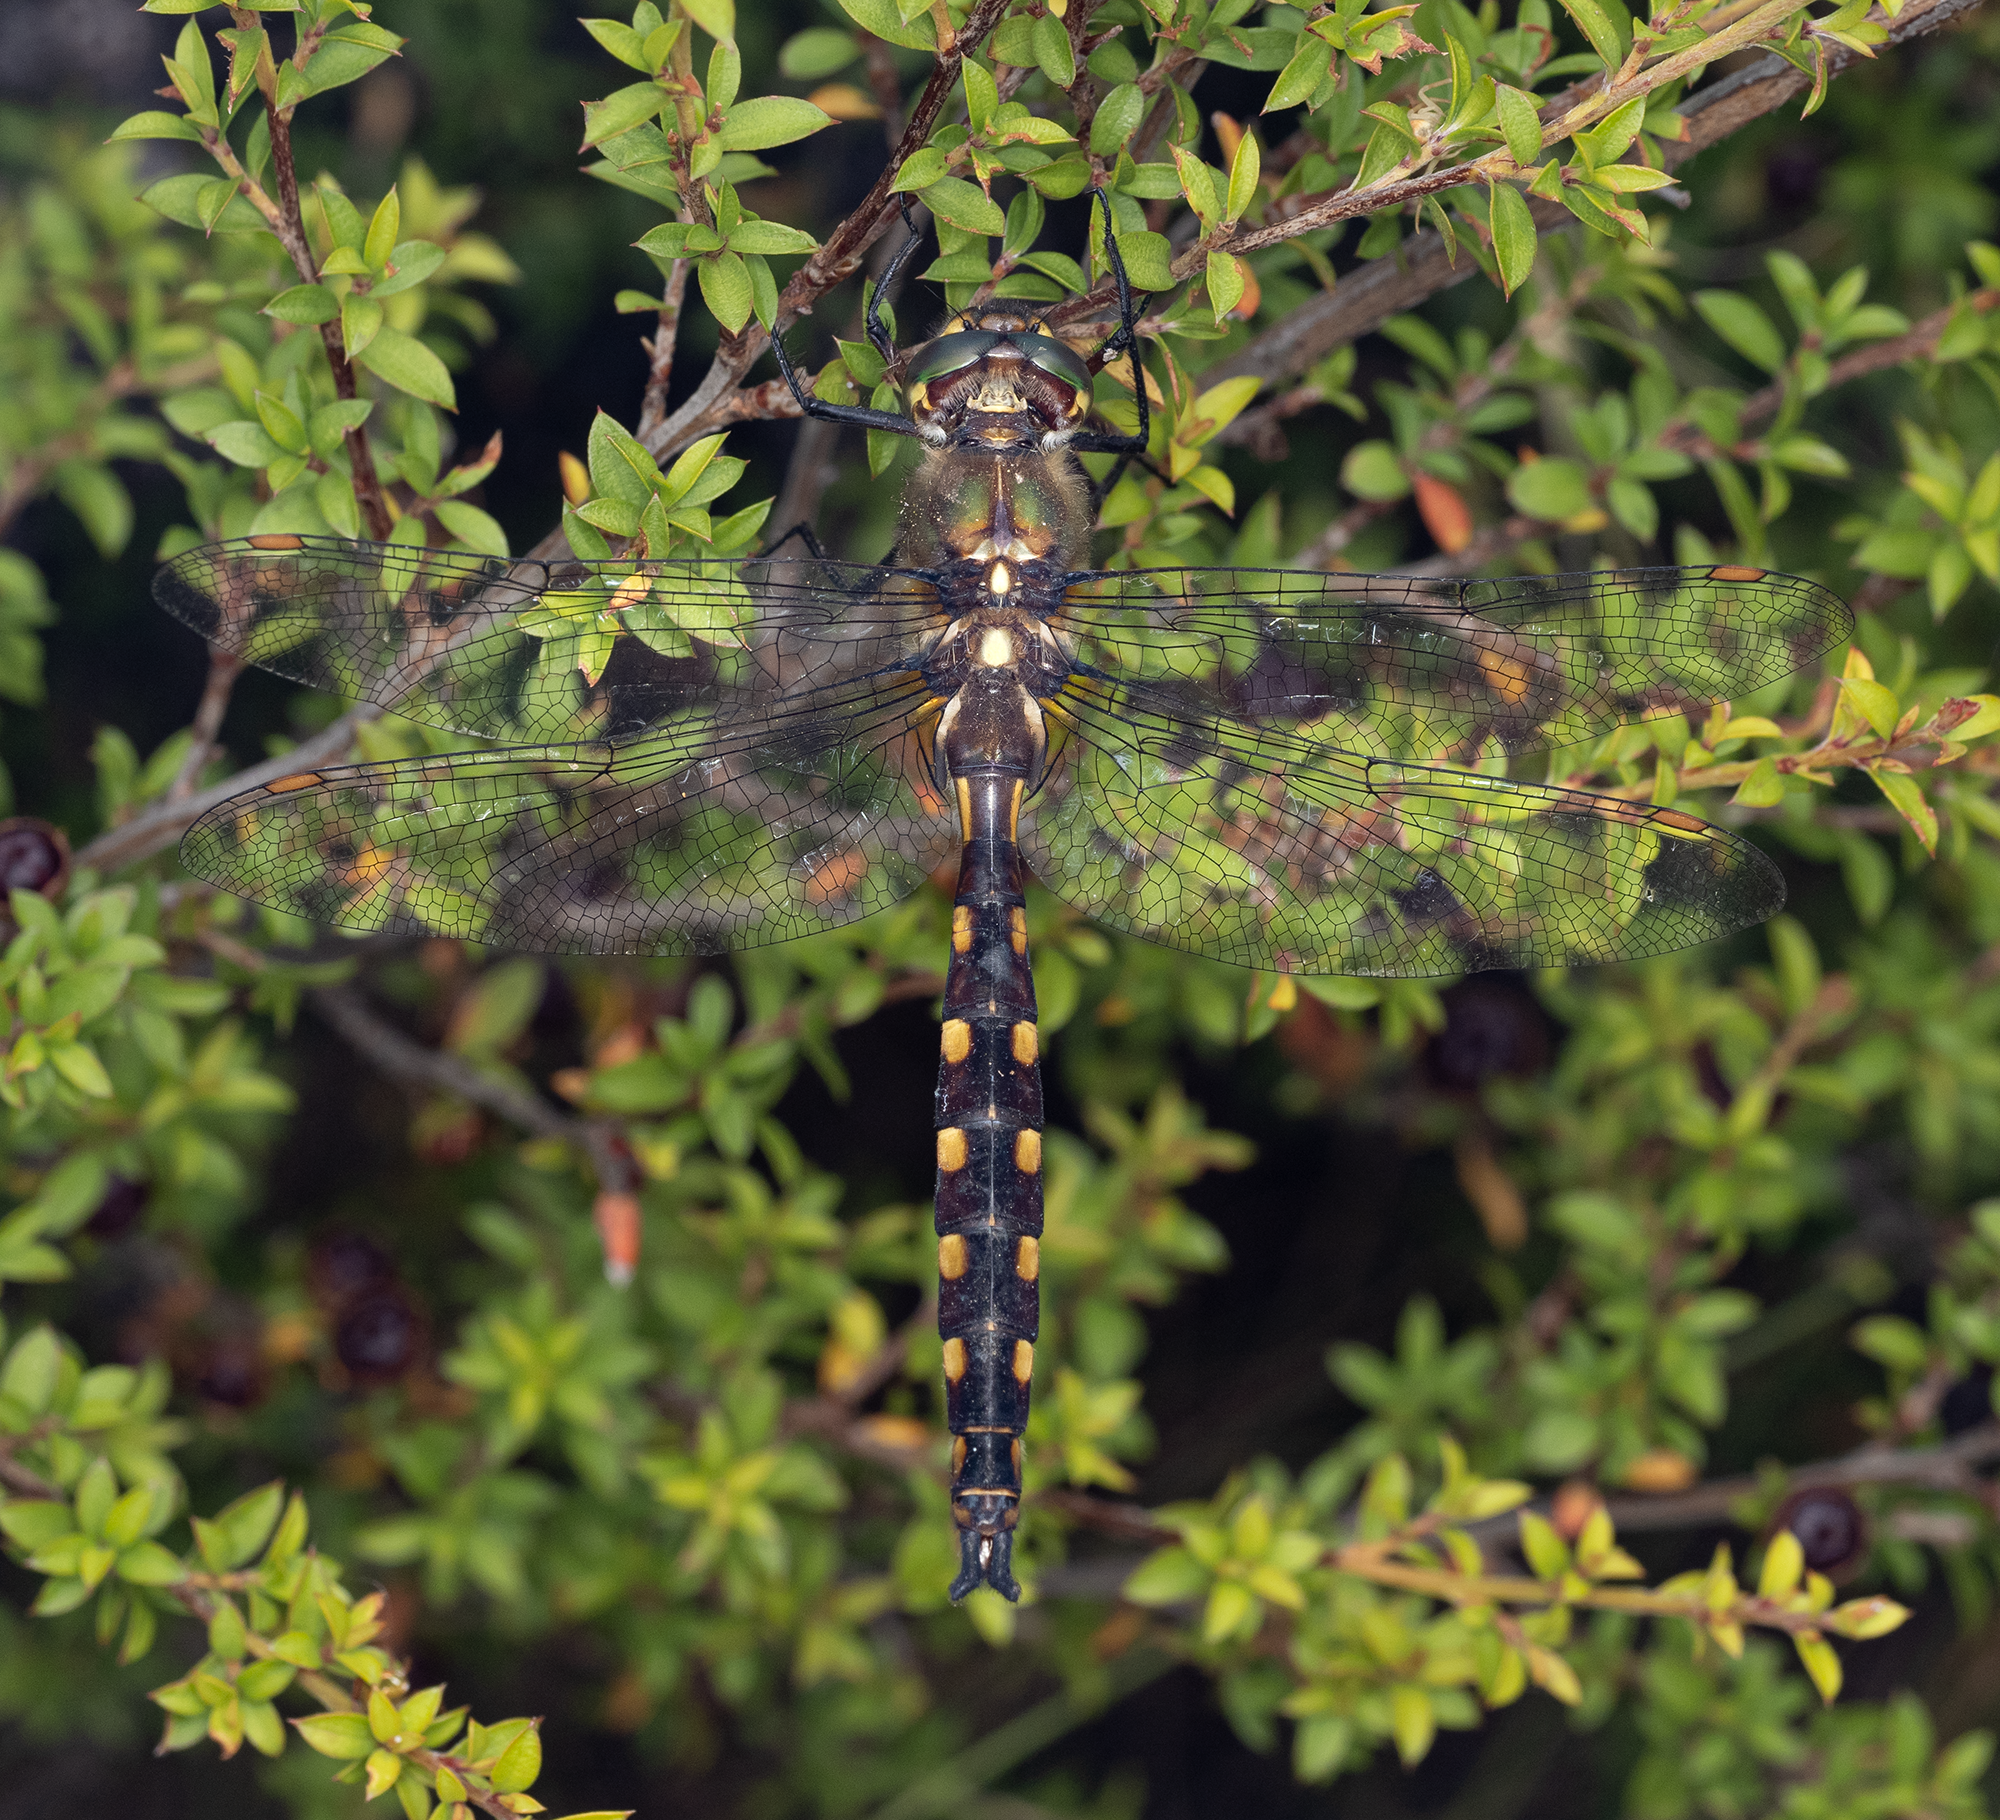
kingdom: Animalia
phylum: Arthropoda
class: Insecta
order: Odonata
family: Corduliidae
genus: Procordulia
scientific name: Procordulia grayi
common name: Yellow spotted dragonfly
